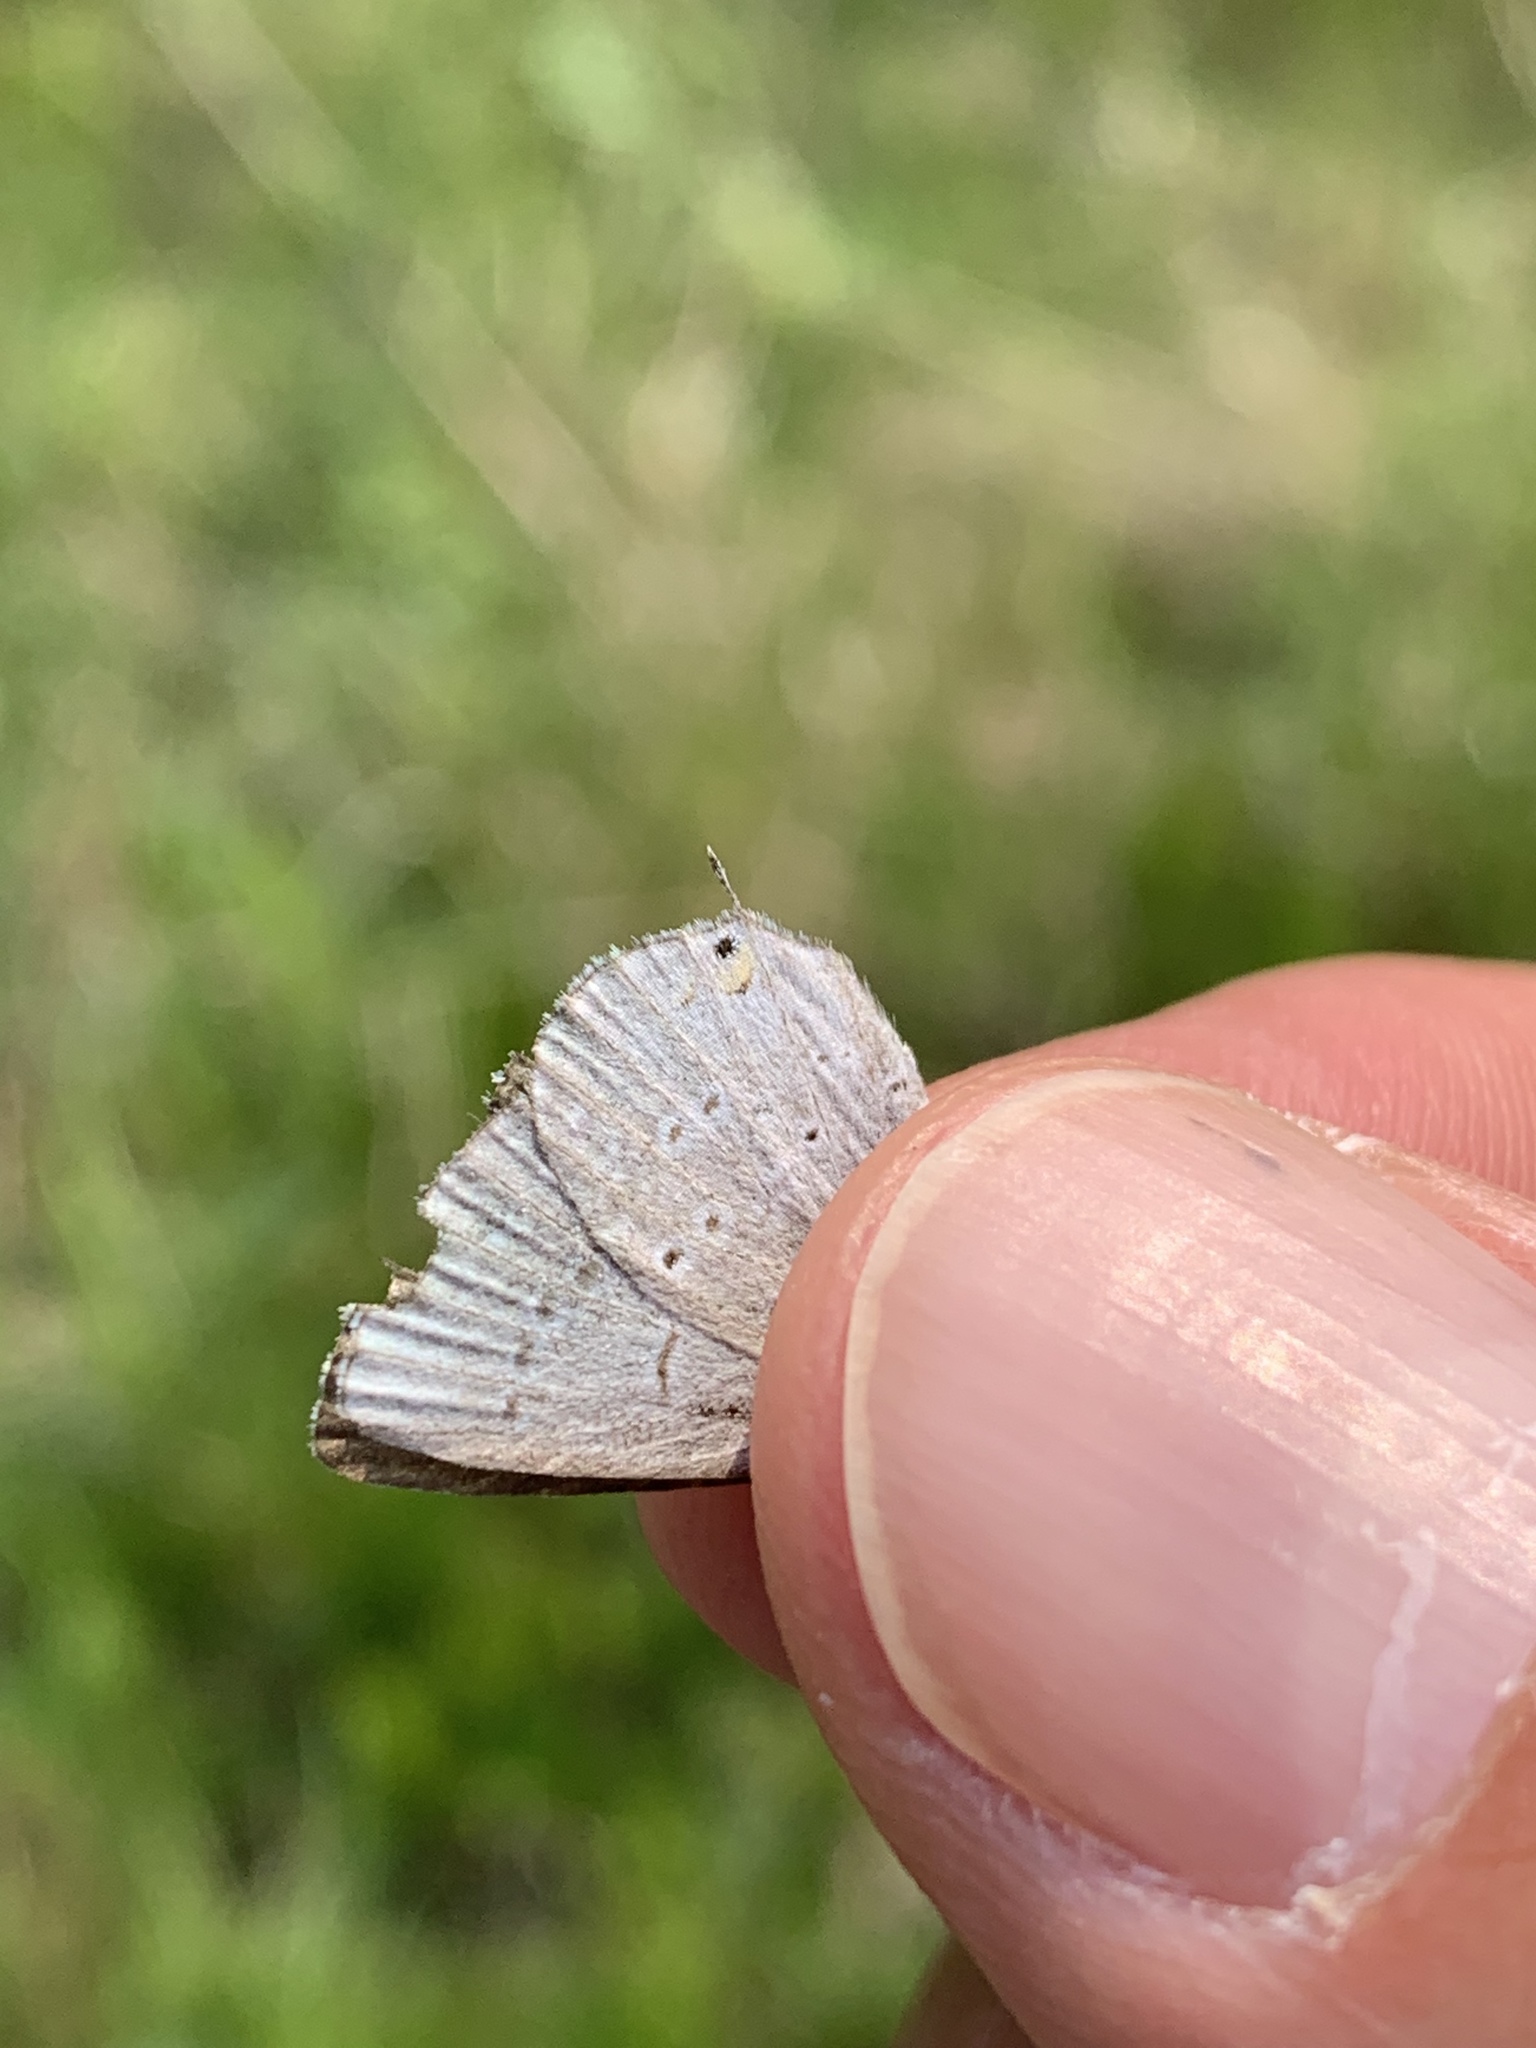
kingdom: Animalia
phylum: Arthropoda
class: Insecta
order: Lepidoptera
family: Lycaenidae
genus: Elkalyce
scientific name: Elkalyce amyntula
